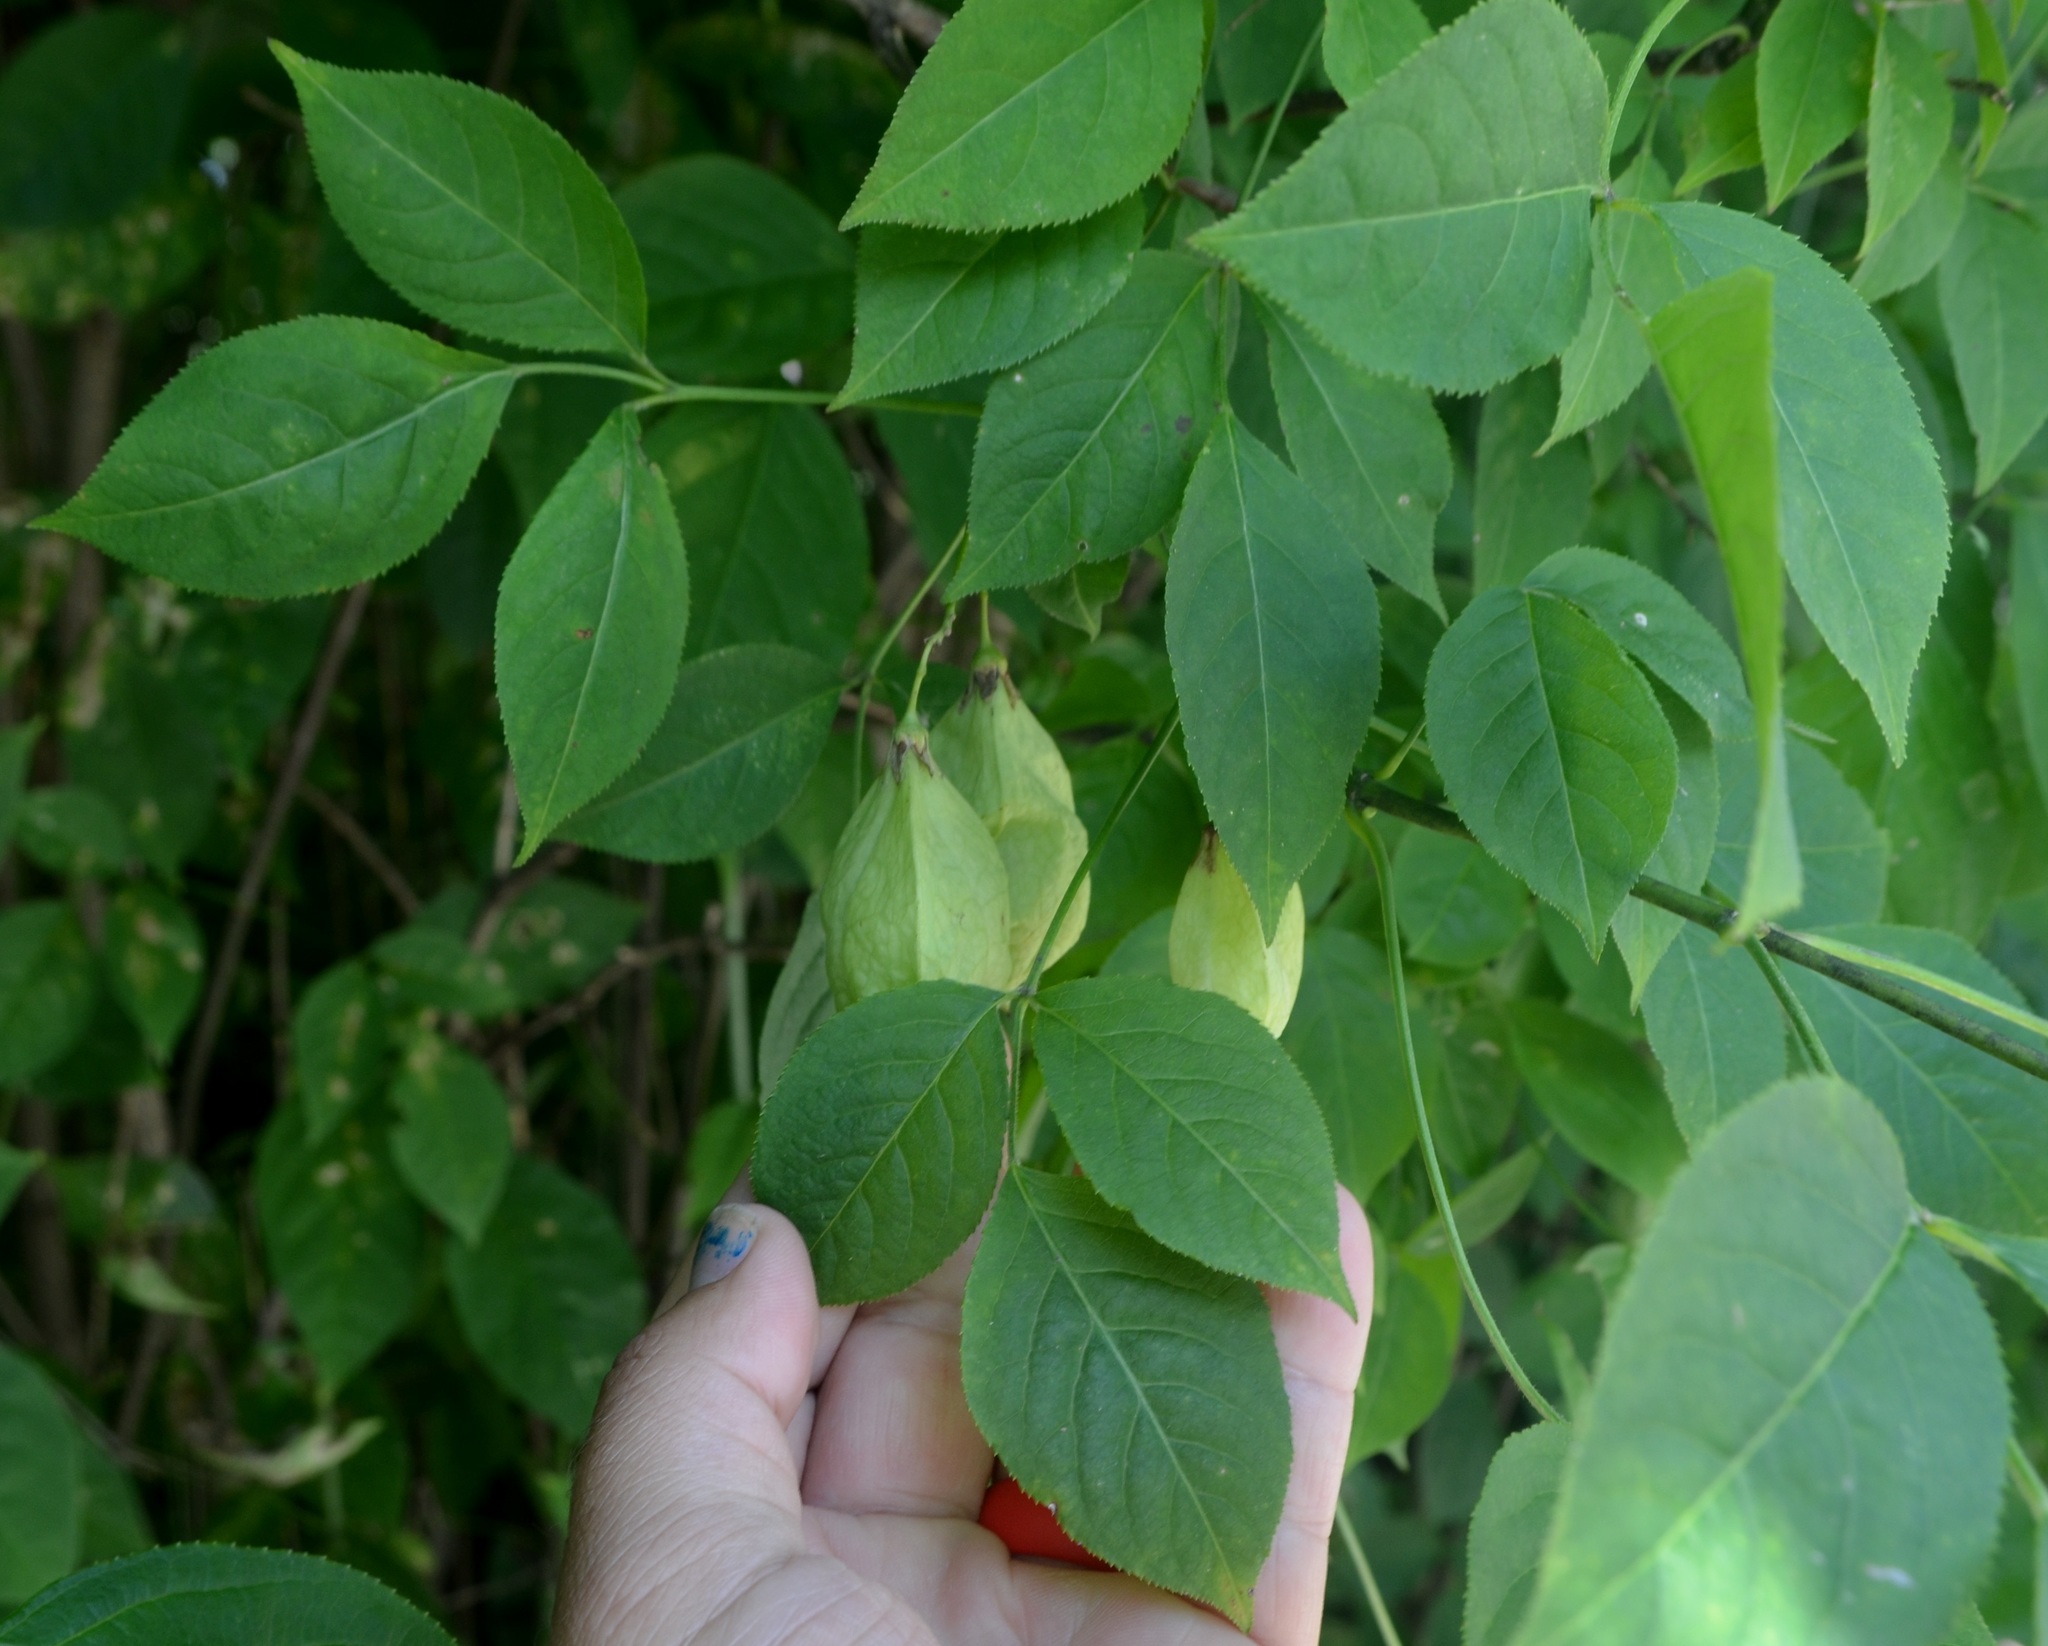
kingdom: Plantae
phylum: Tracheophyta
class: Magnoliopsida
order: Crossosomatales
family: Staphyleaceae
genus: Staphylea
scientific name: Staphylea trifolia
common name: American bladdernut
